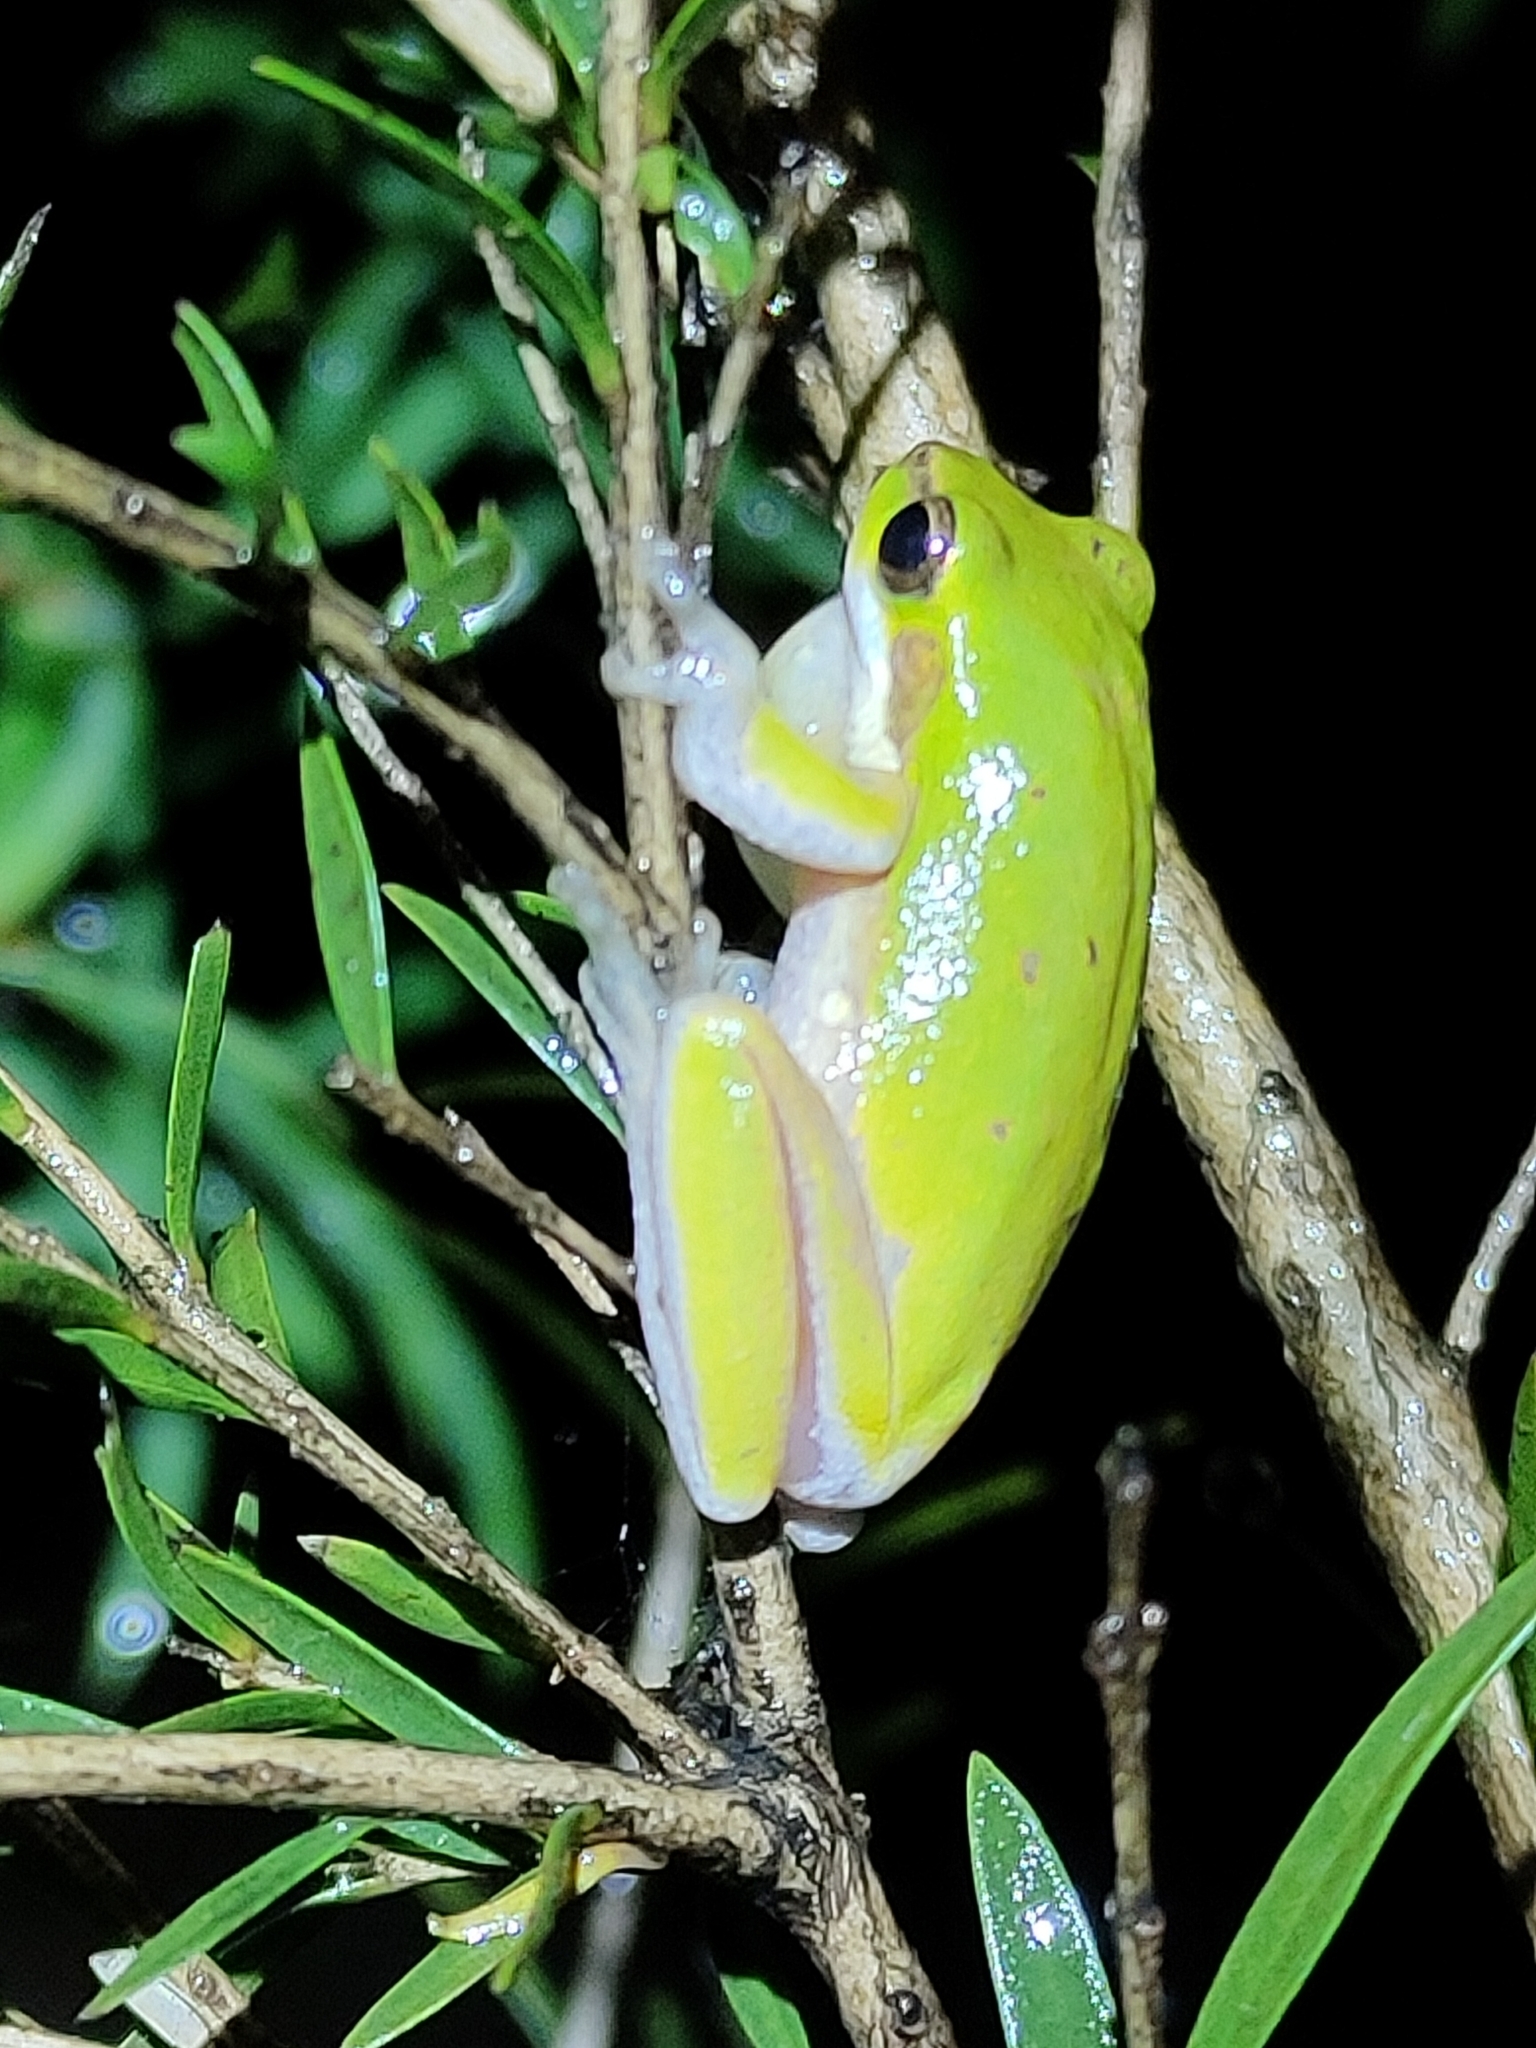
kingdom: Animalia
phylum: Chordata
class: Amphibia
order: Anura
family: Pelodryadidae
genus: Litoria
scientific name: Litoria fallax
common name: Eastern dwarf treefrog
